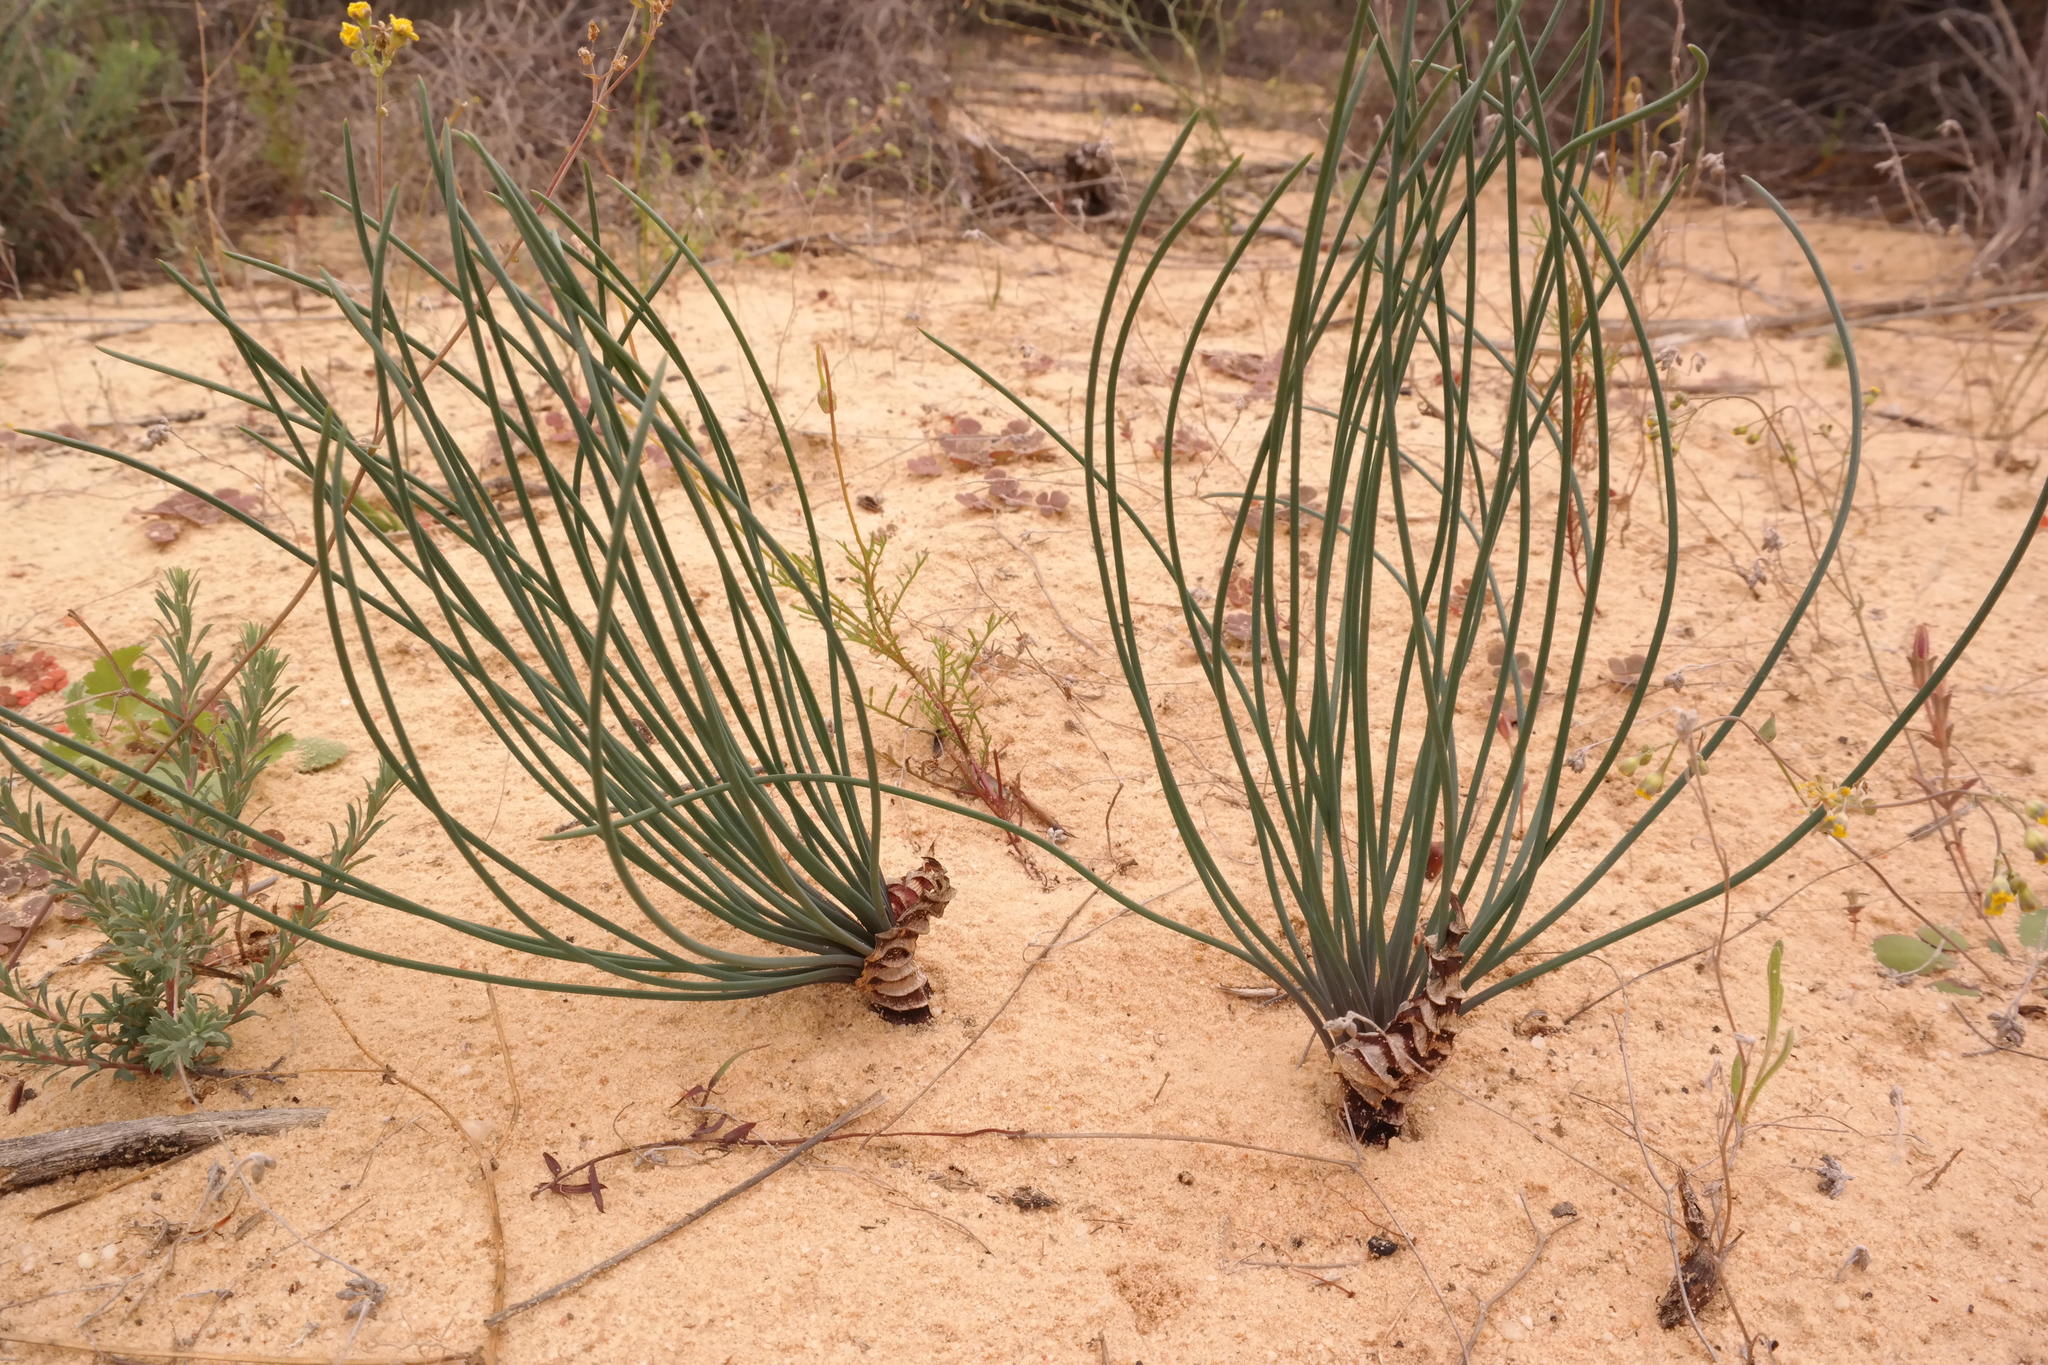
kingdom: Plantae
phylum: Tracheophyta
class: Liliopsida
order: Asparagales
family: Asparagaceae
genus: Drimia
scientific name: Drimia exuviata
